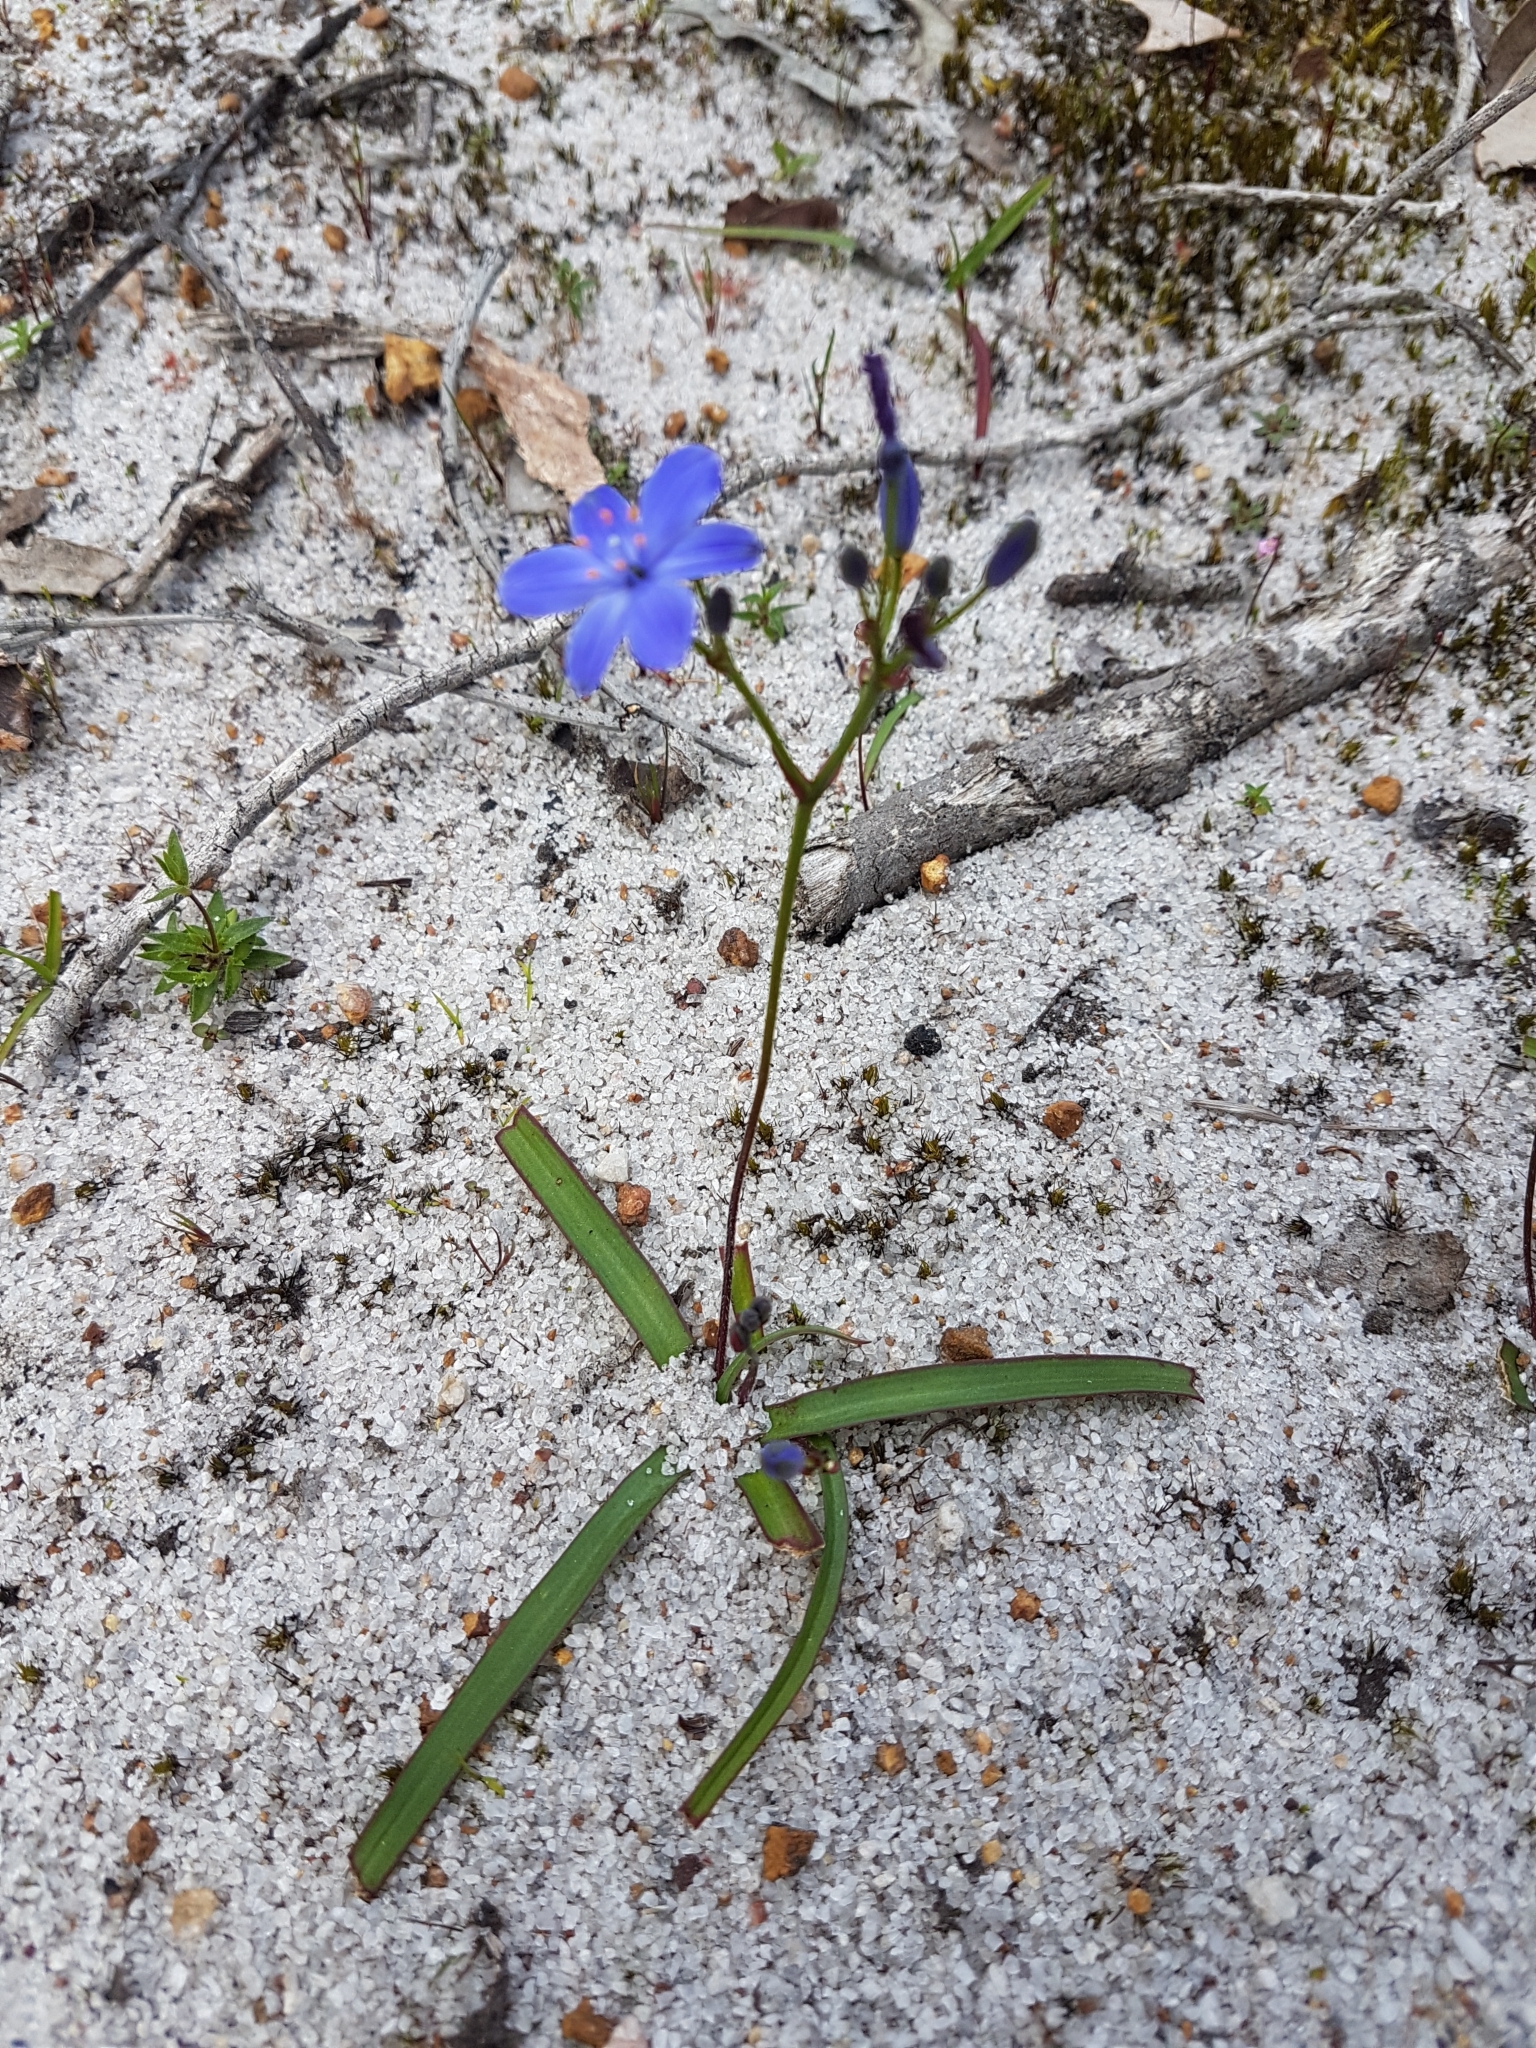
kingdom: Plantae
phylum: Tracheophyta
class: Liliopsida
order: Asparagales
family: Asphodelaceae
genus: Chamaescilla
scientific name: Chamaescilla corymbosa
